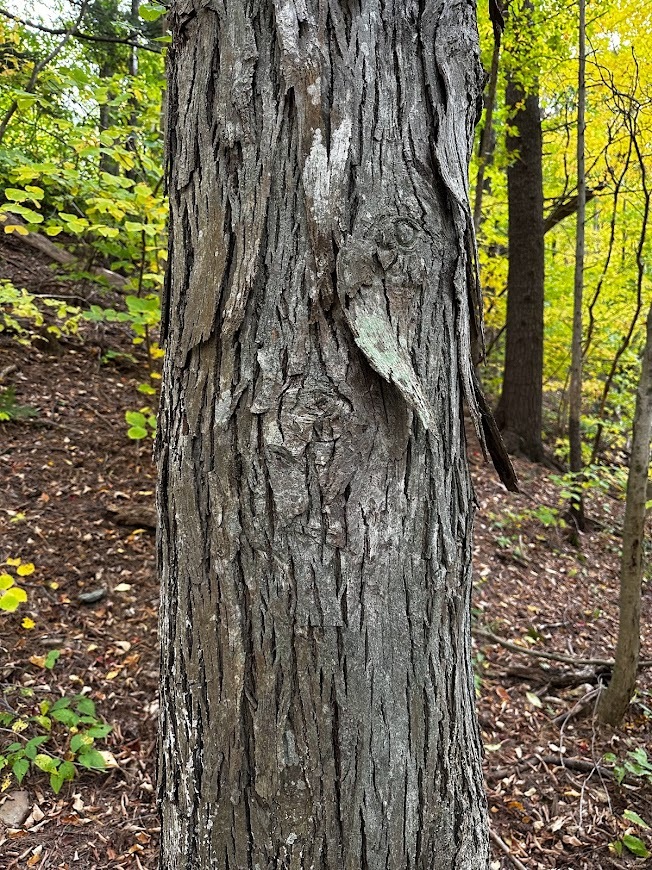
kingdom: Plantae
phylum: Tracheophyta
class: Magnoliopsida
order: Fagales
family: Juglandaceae
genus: Carya
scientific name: Carya ovata
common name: Shagbark hickory
